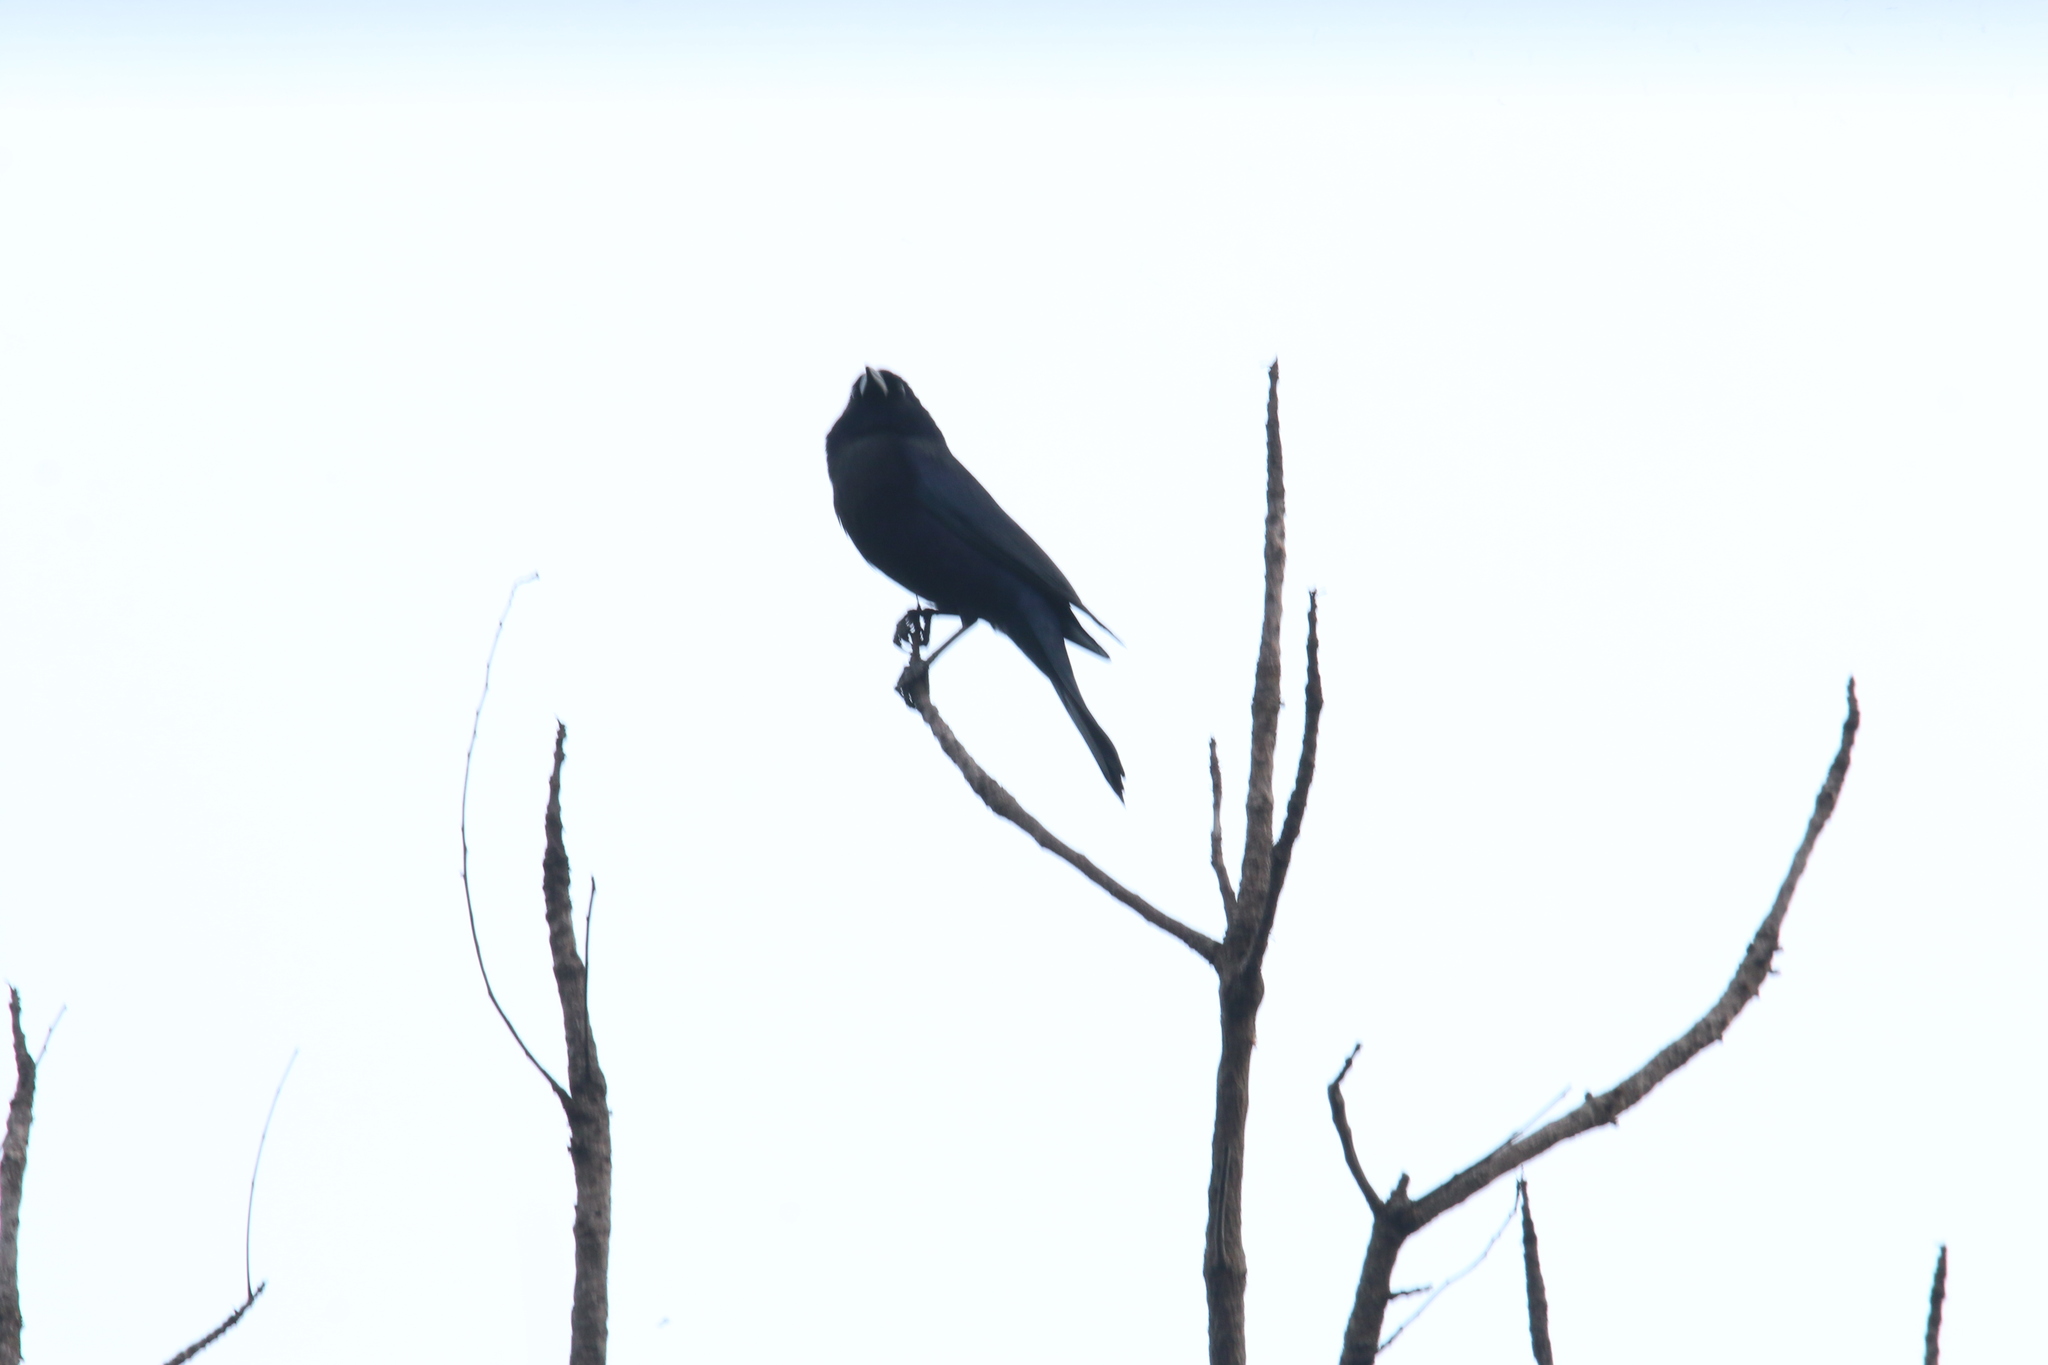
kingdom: Animalia
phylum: Chordata
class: Aves
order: Passeriformes
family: Icteridae
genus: Molothrus
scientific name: Molothrus oryzivorus
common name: Giant cowbird
